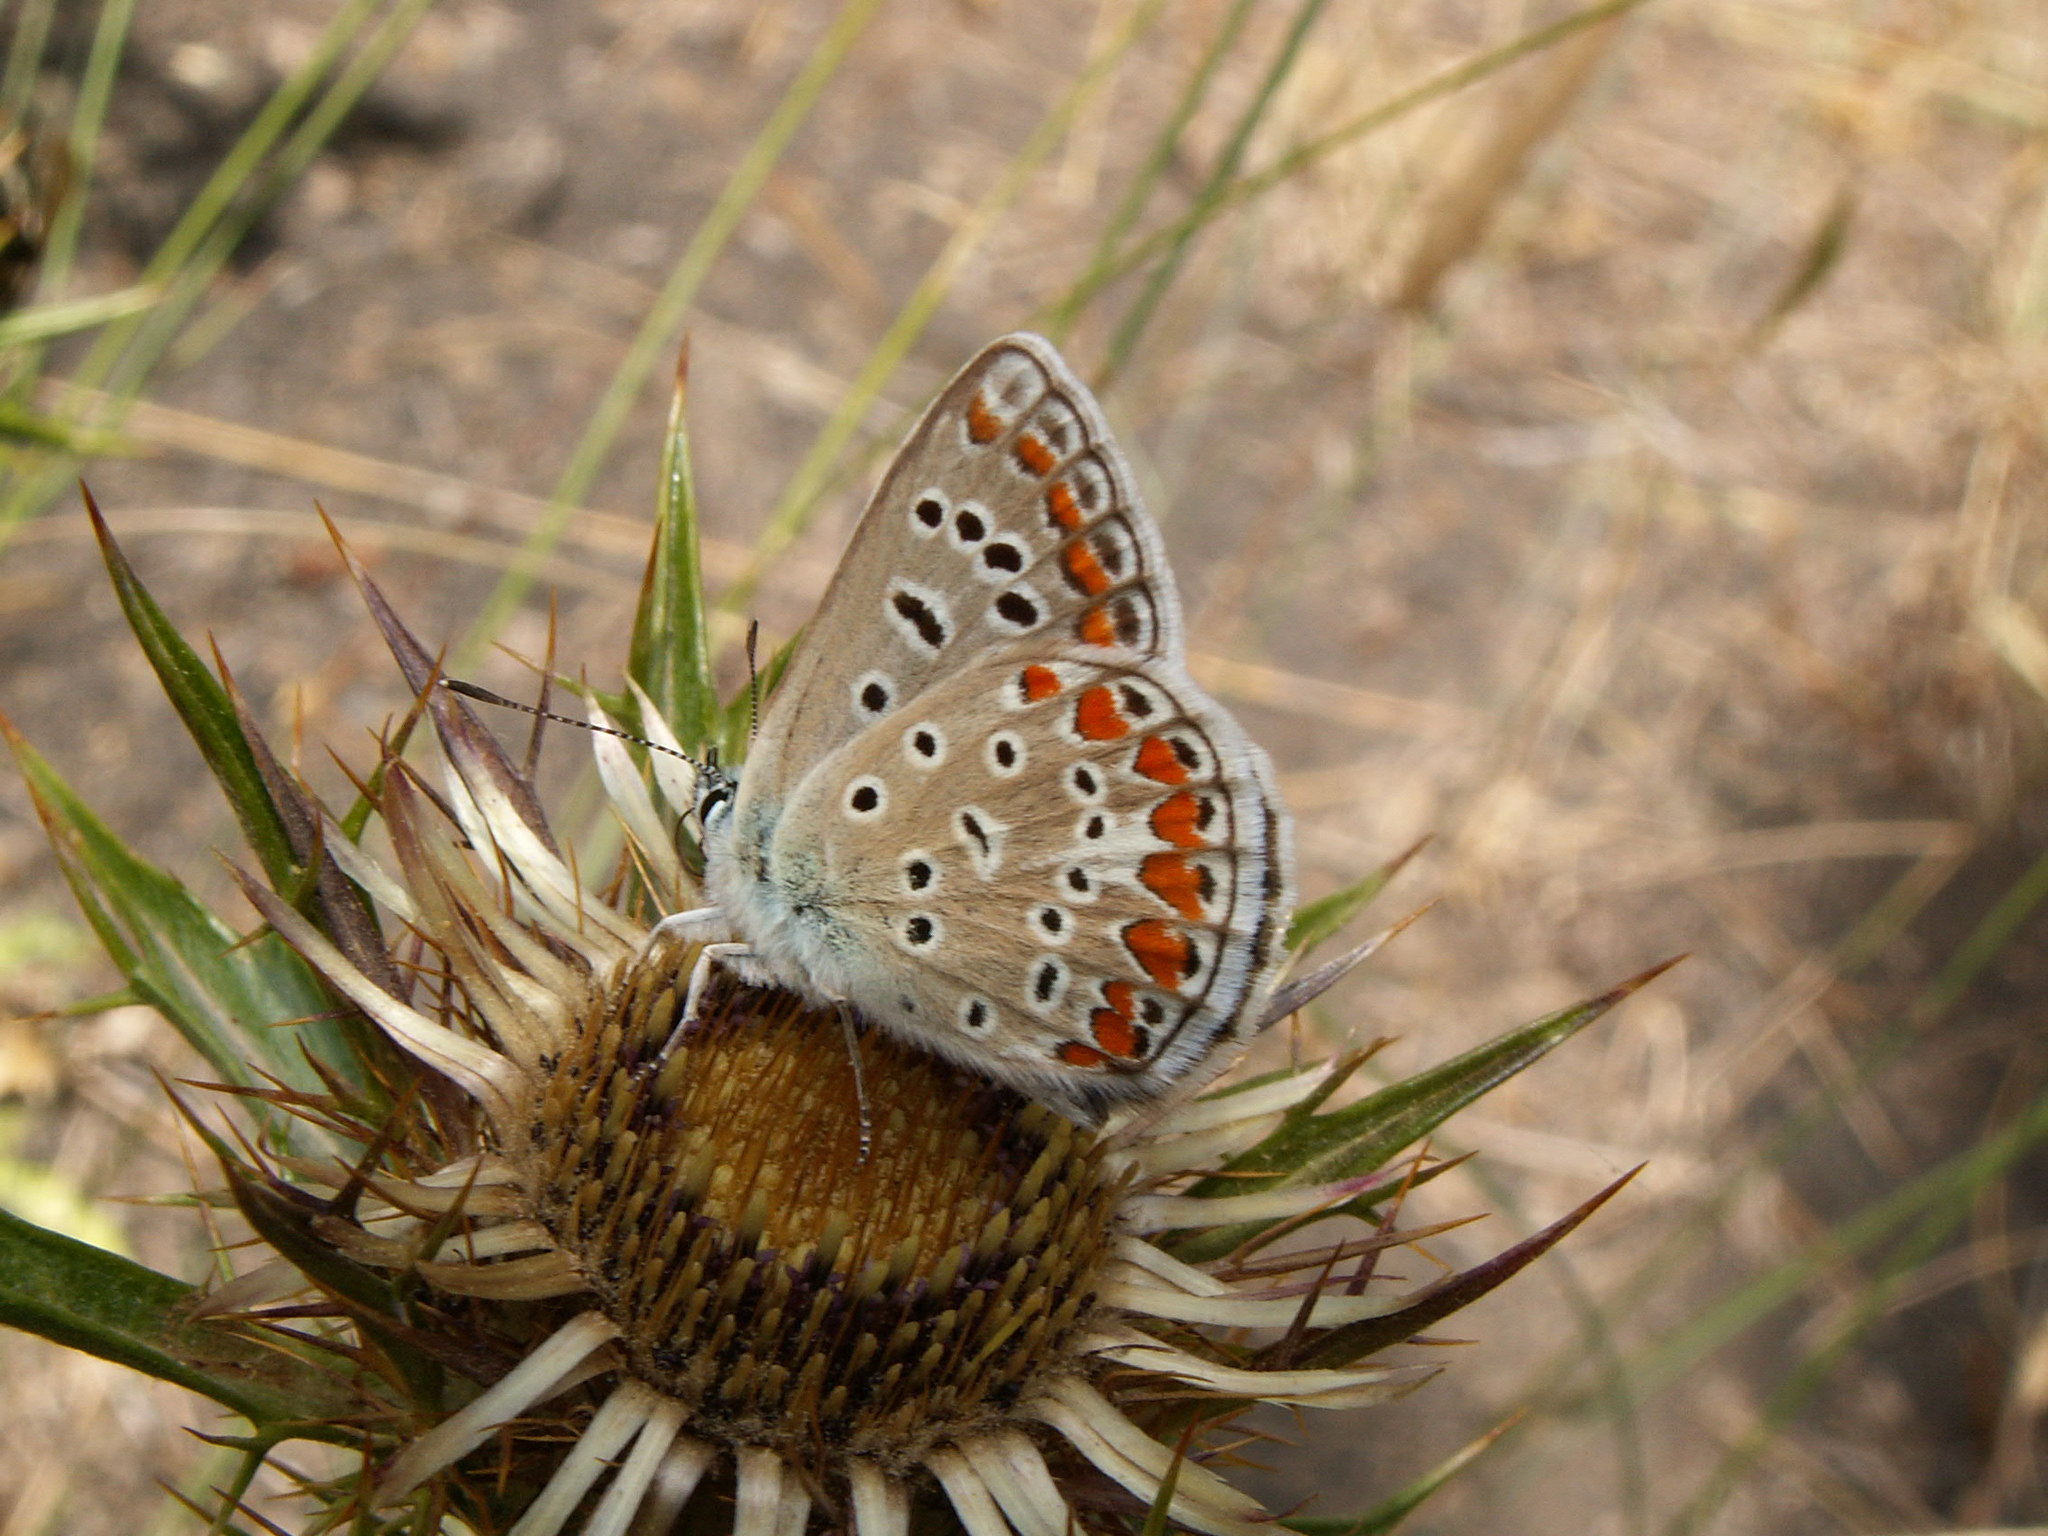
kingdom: Animalia
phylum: Arthropoda
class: Insecta
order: Lepidoptera
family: Lycaenidae
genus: Polyommatus
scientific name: Polyommatus celina
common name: Austaut's blue
